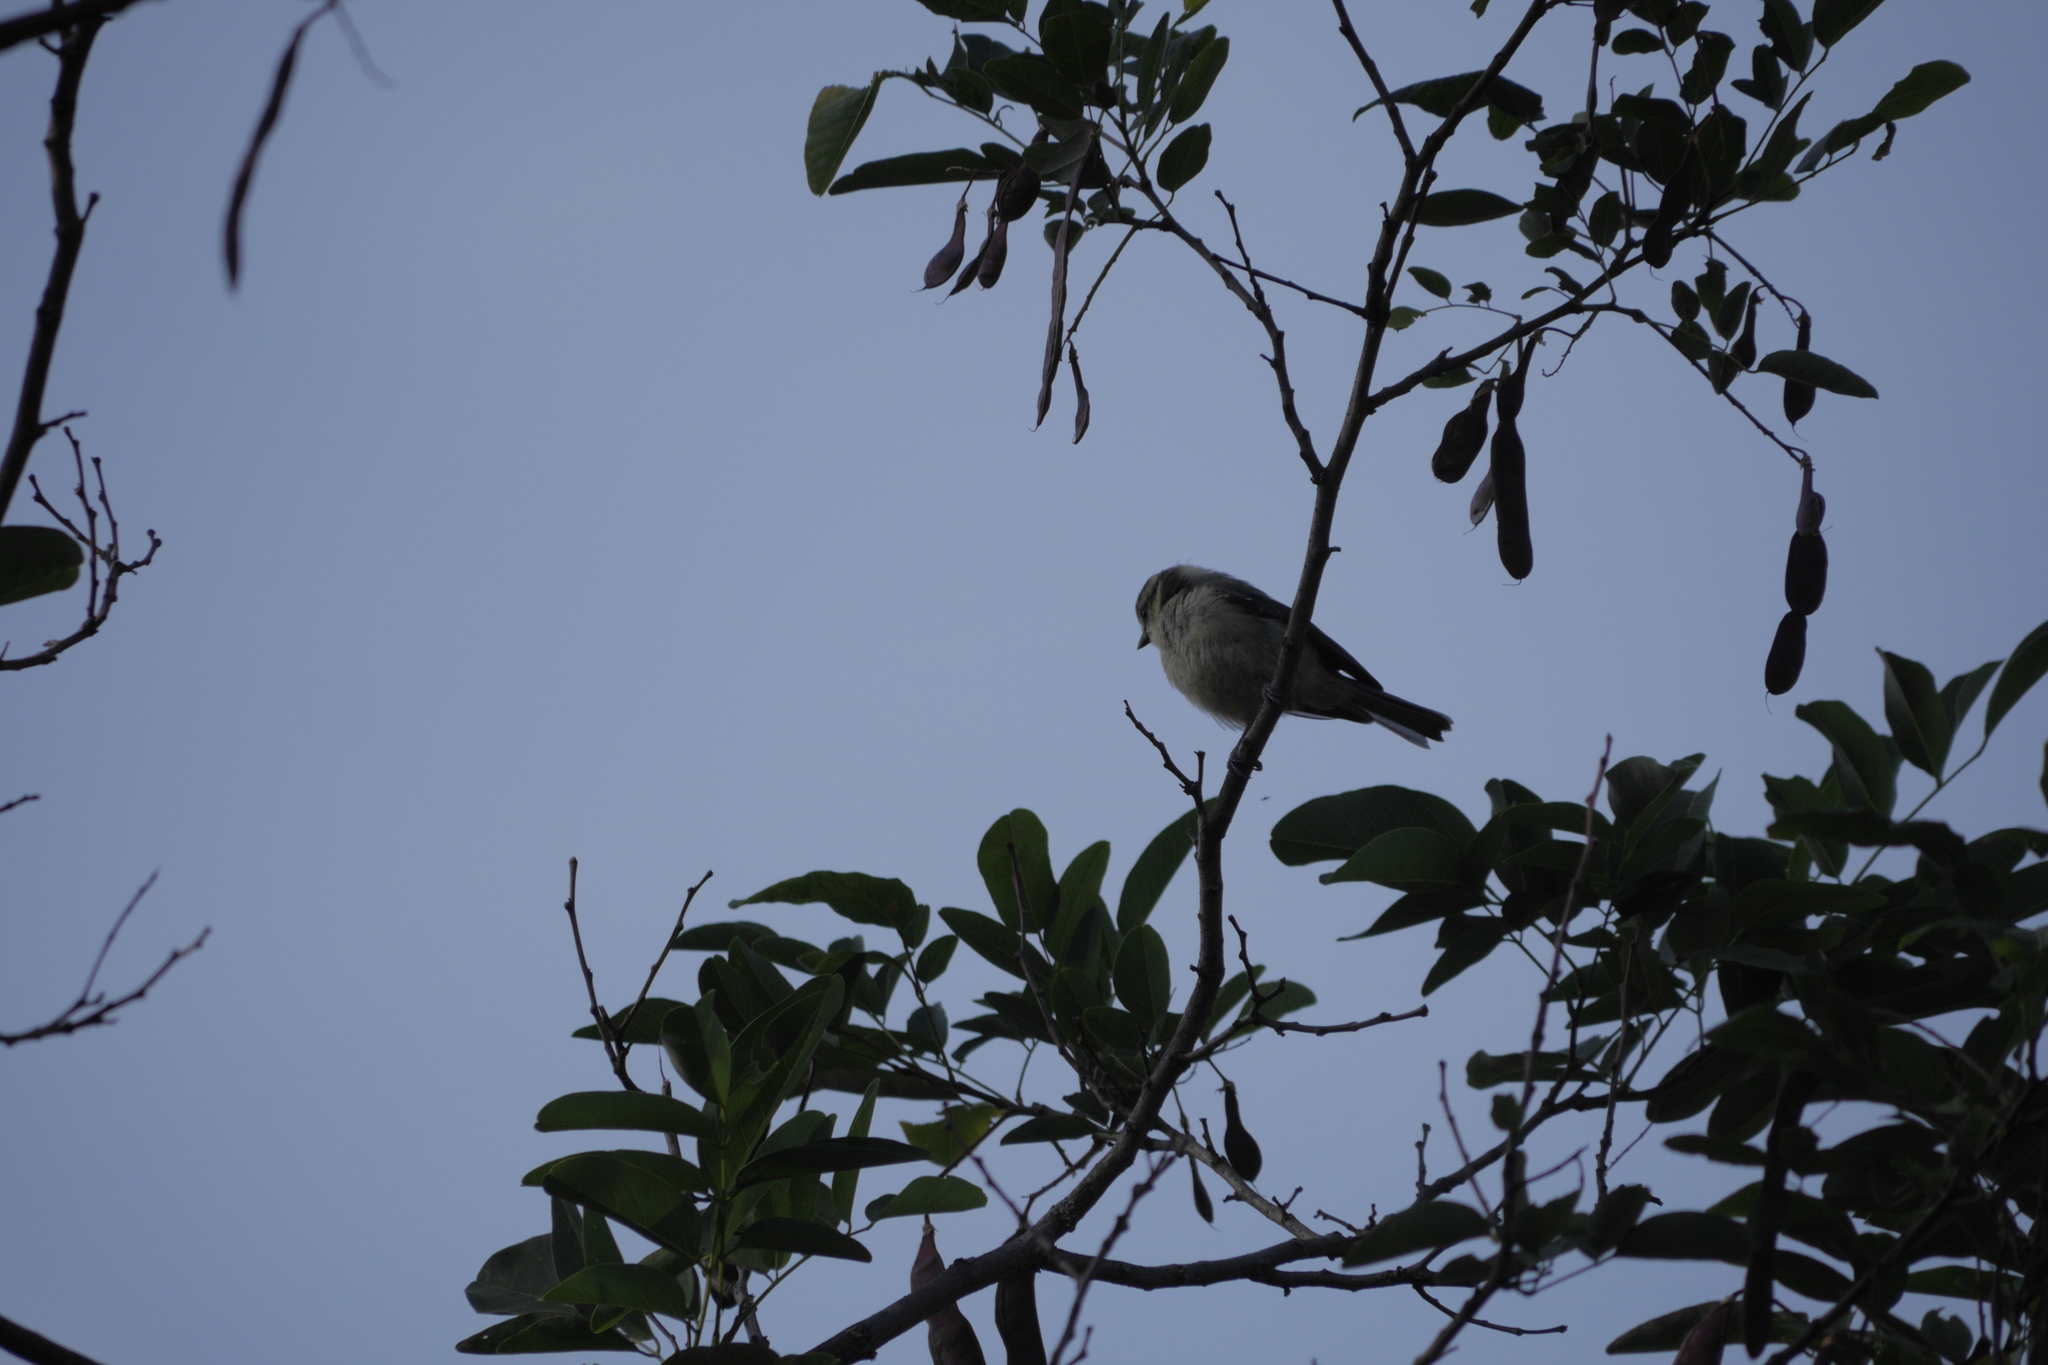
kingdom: Animalia
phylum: Chordata
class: Aves
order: Passeriformes
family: Paridae
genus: Cyanistes
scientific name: Cyanistes caeruleus
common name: Eurasian blue tit
